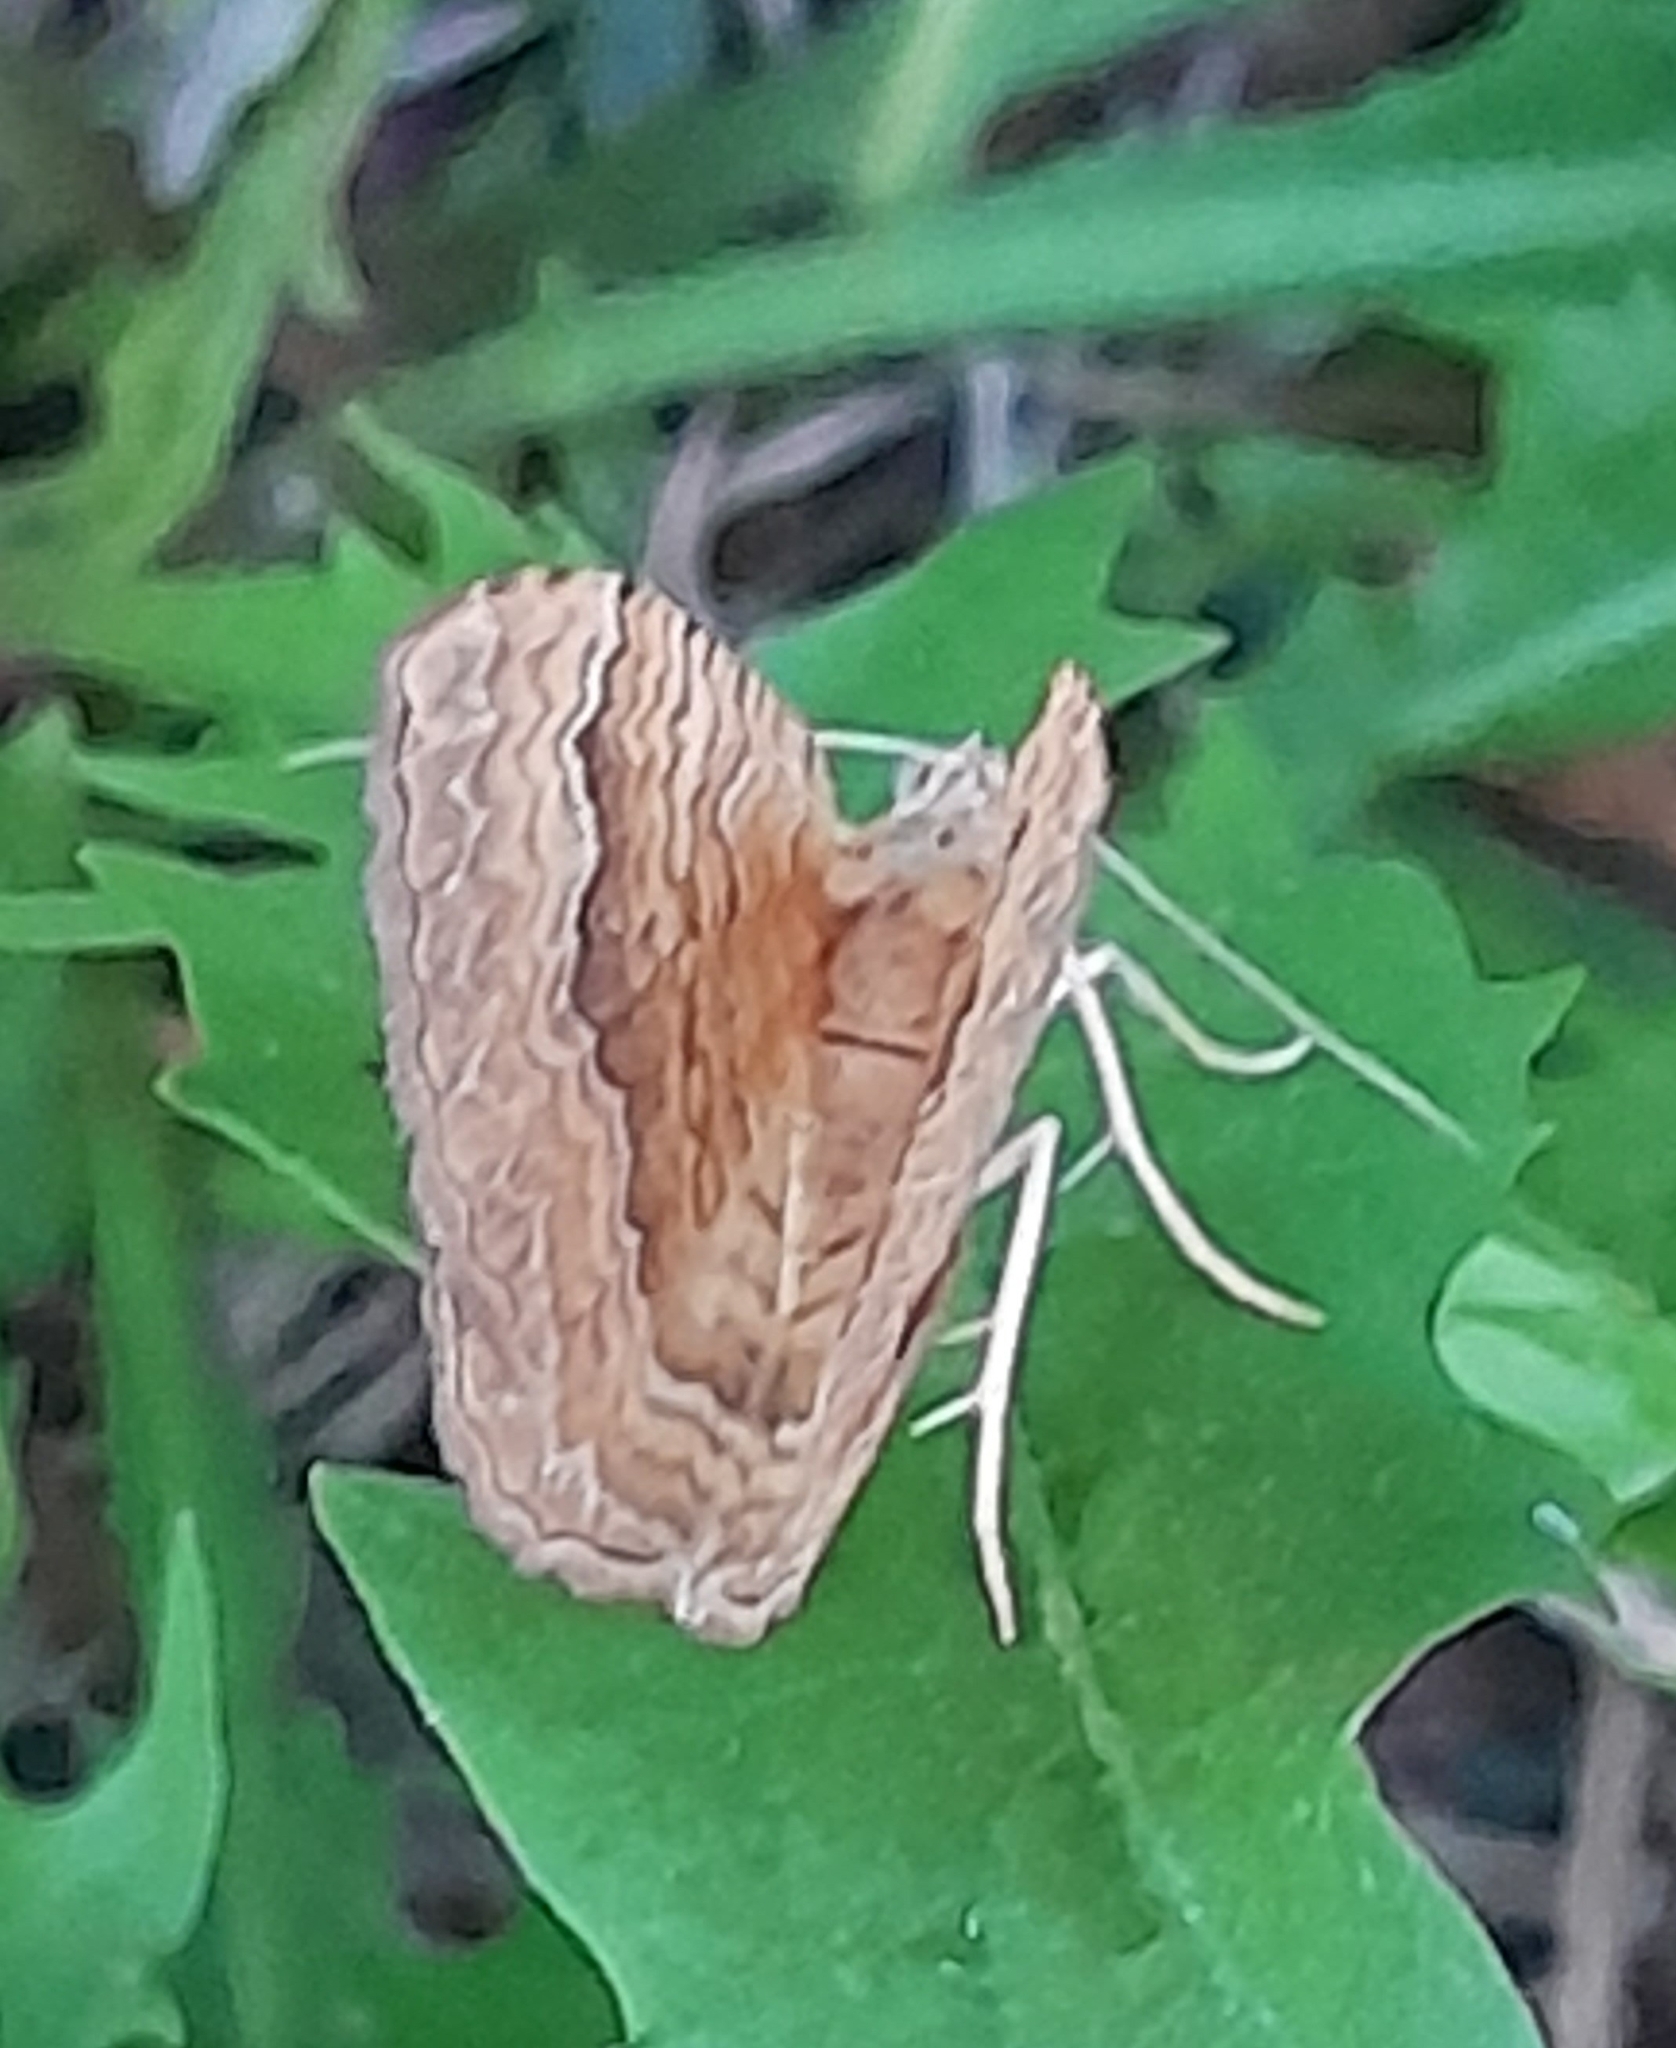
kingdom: Animalia
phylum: Arthropoda
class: Insecta
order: Lepidoptera
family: Geometridae
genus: Camptogramma
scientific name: Camptogramma bilineata
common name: Yellow shell
